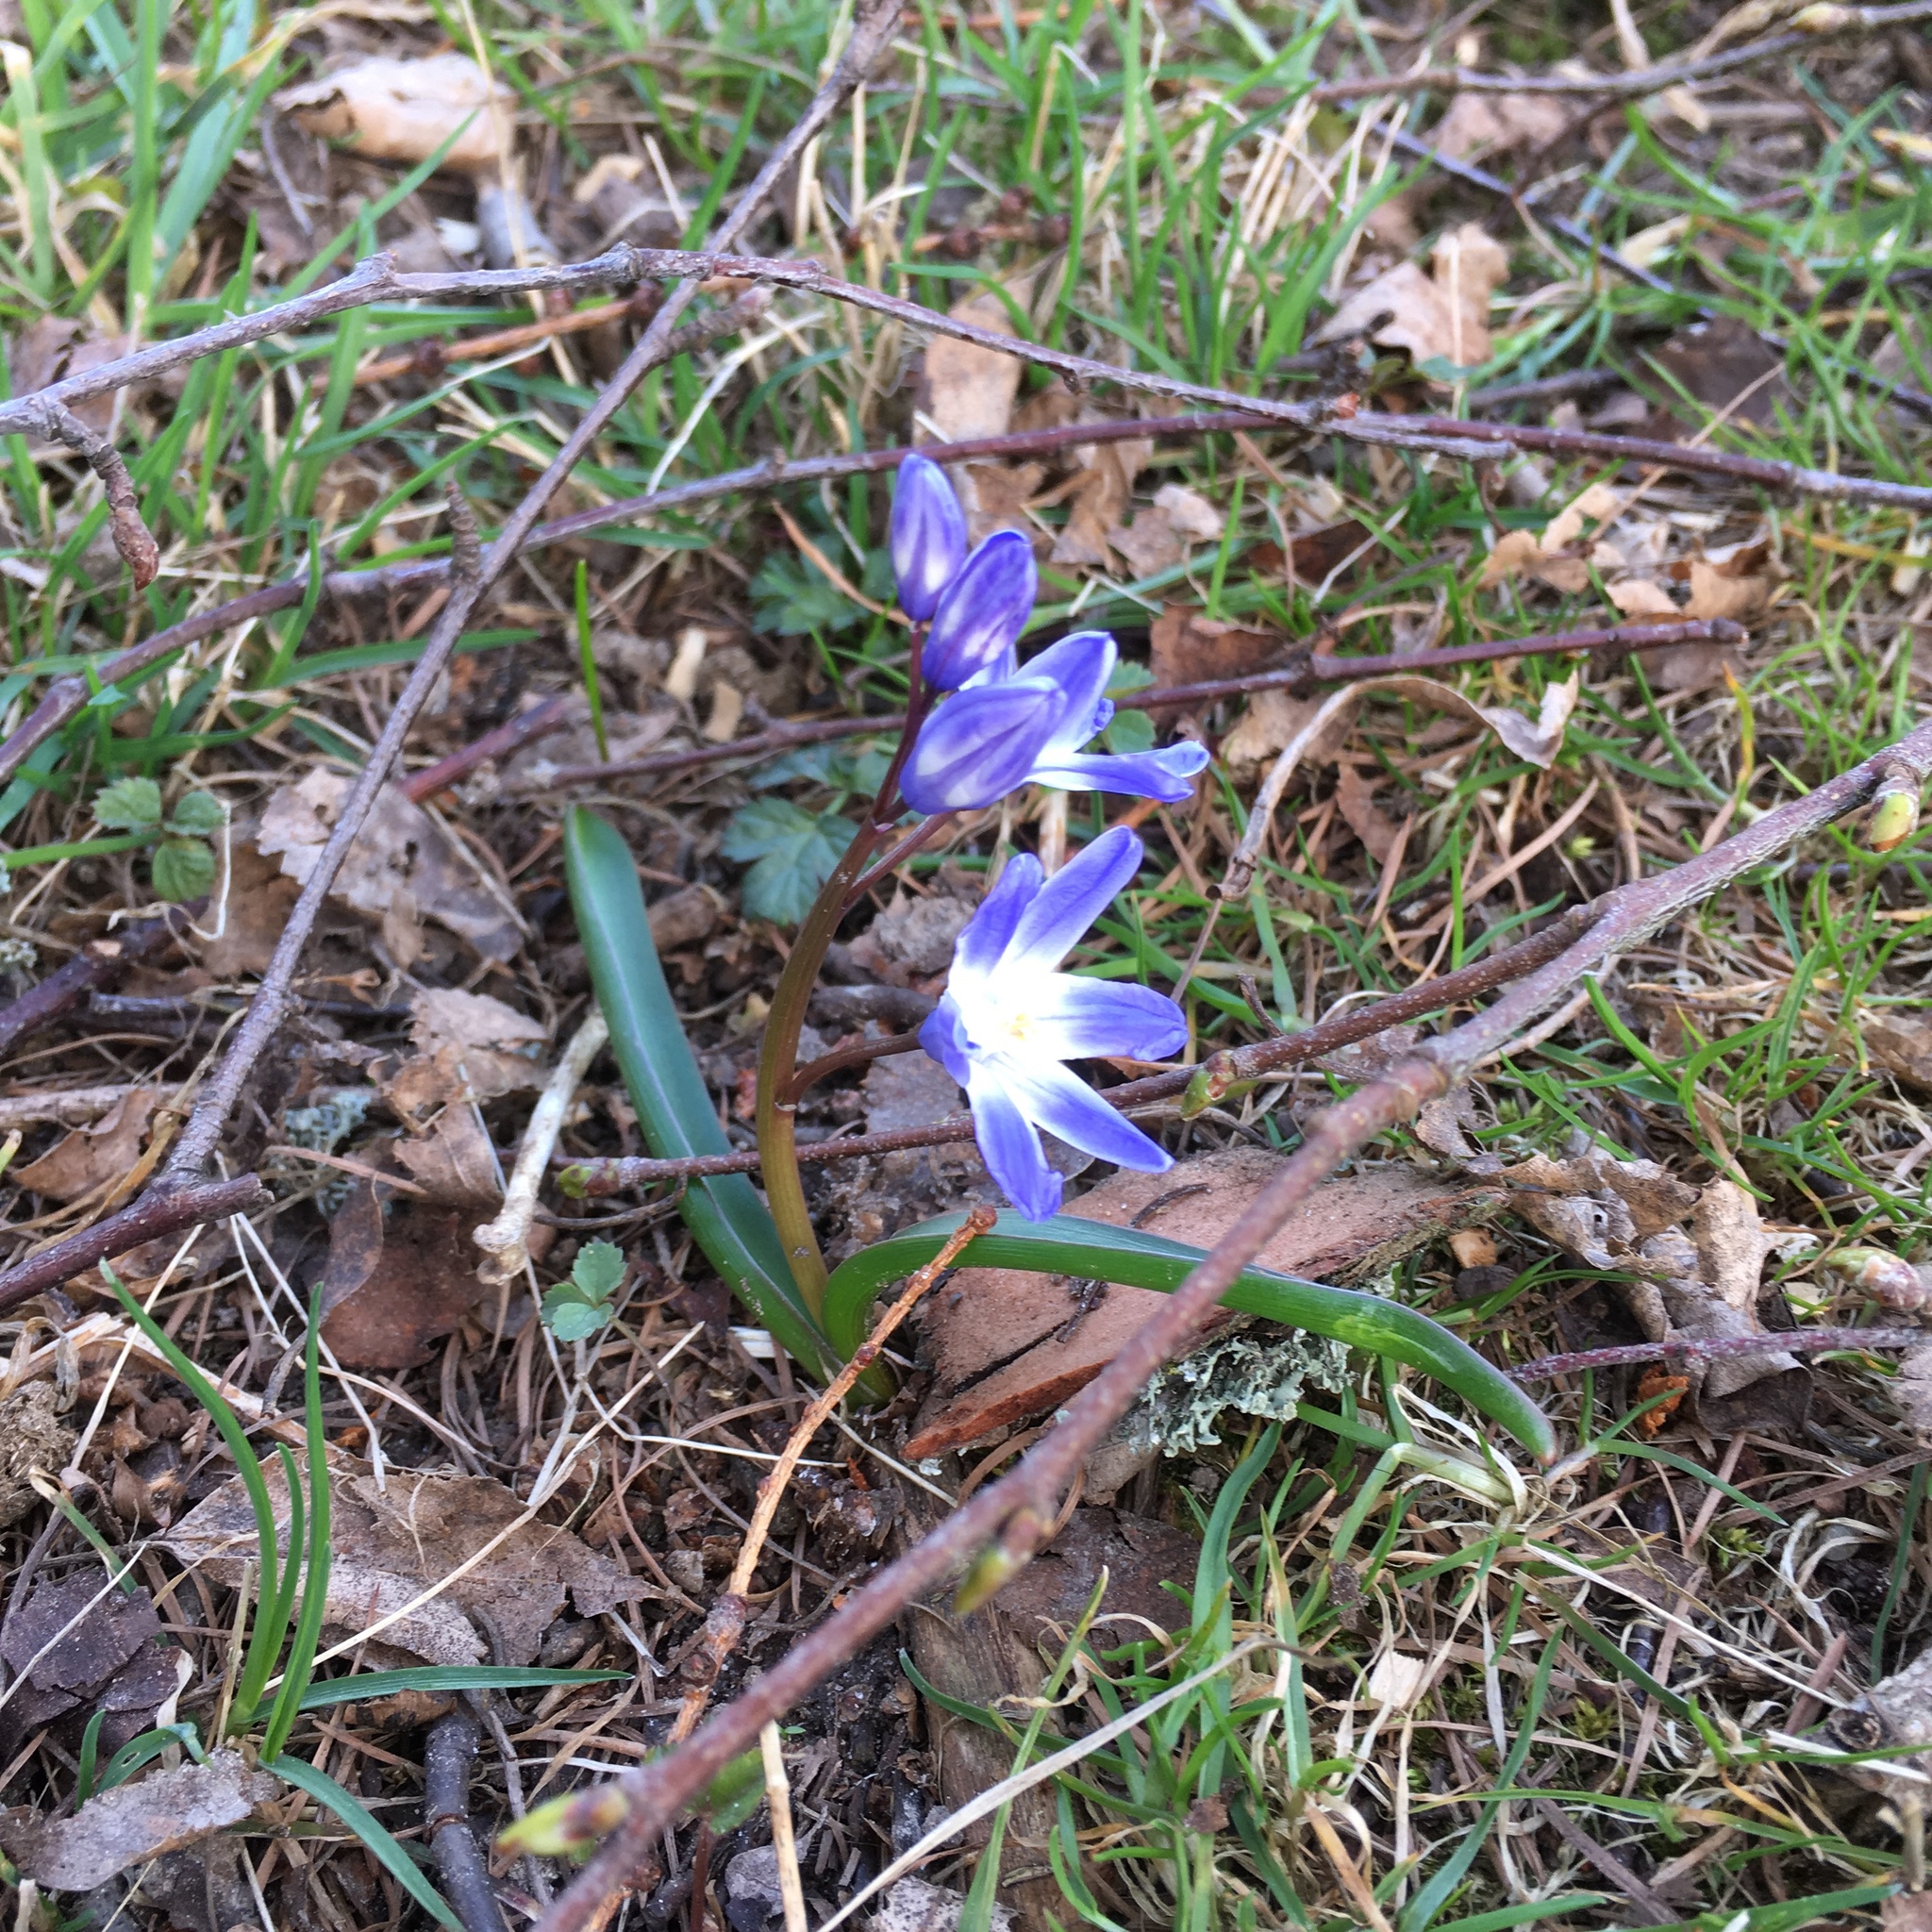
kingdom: Plantae
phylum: Tracheophyta
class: Liliopsida
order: Asparagales
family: Asparagaceae
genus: Scilla
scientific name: Scilla forbesii
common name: Glory-of-the-snow
